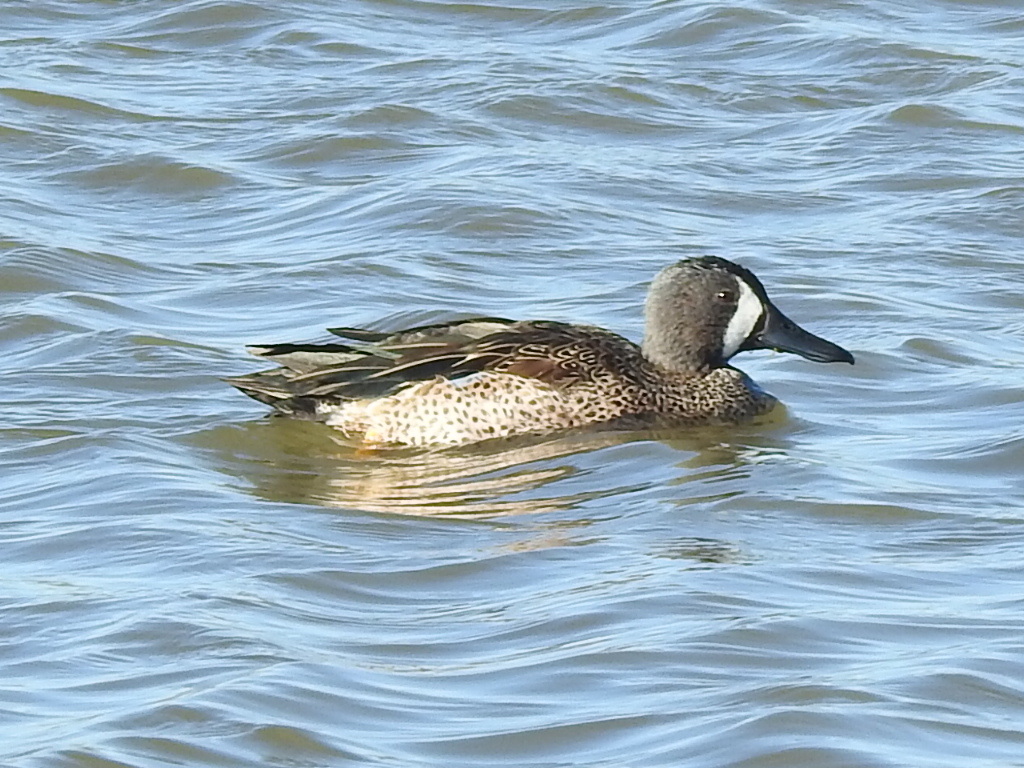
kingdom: Animalia
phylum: Chordata
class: Aves
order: Anseriformes
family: Anatidae
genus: Spatula
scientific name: Spatula discors
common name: Blue-winged teal
